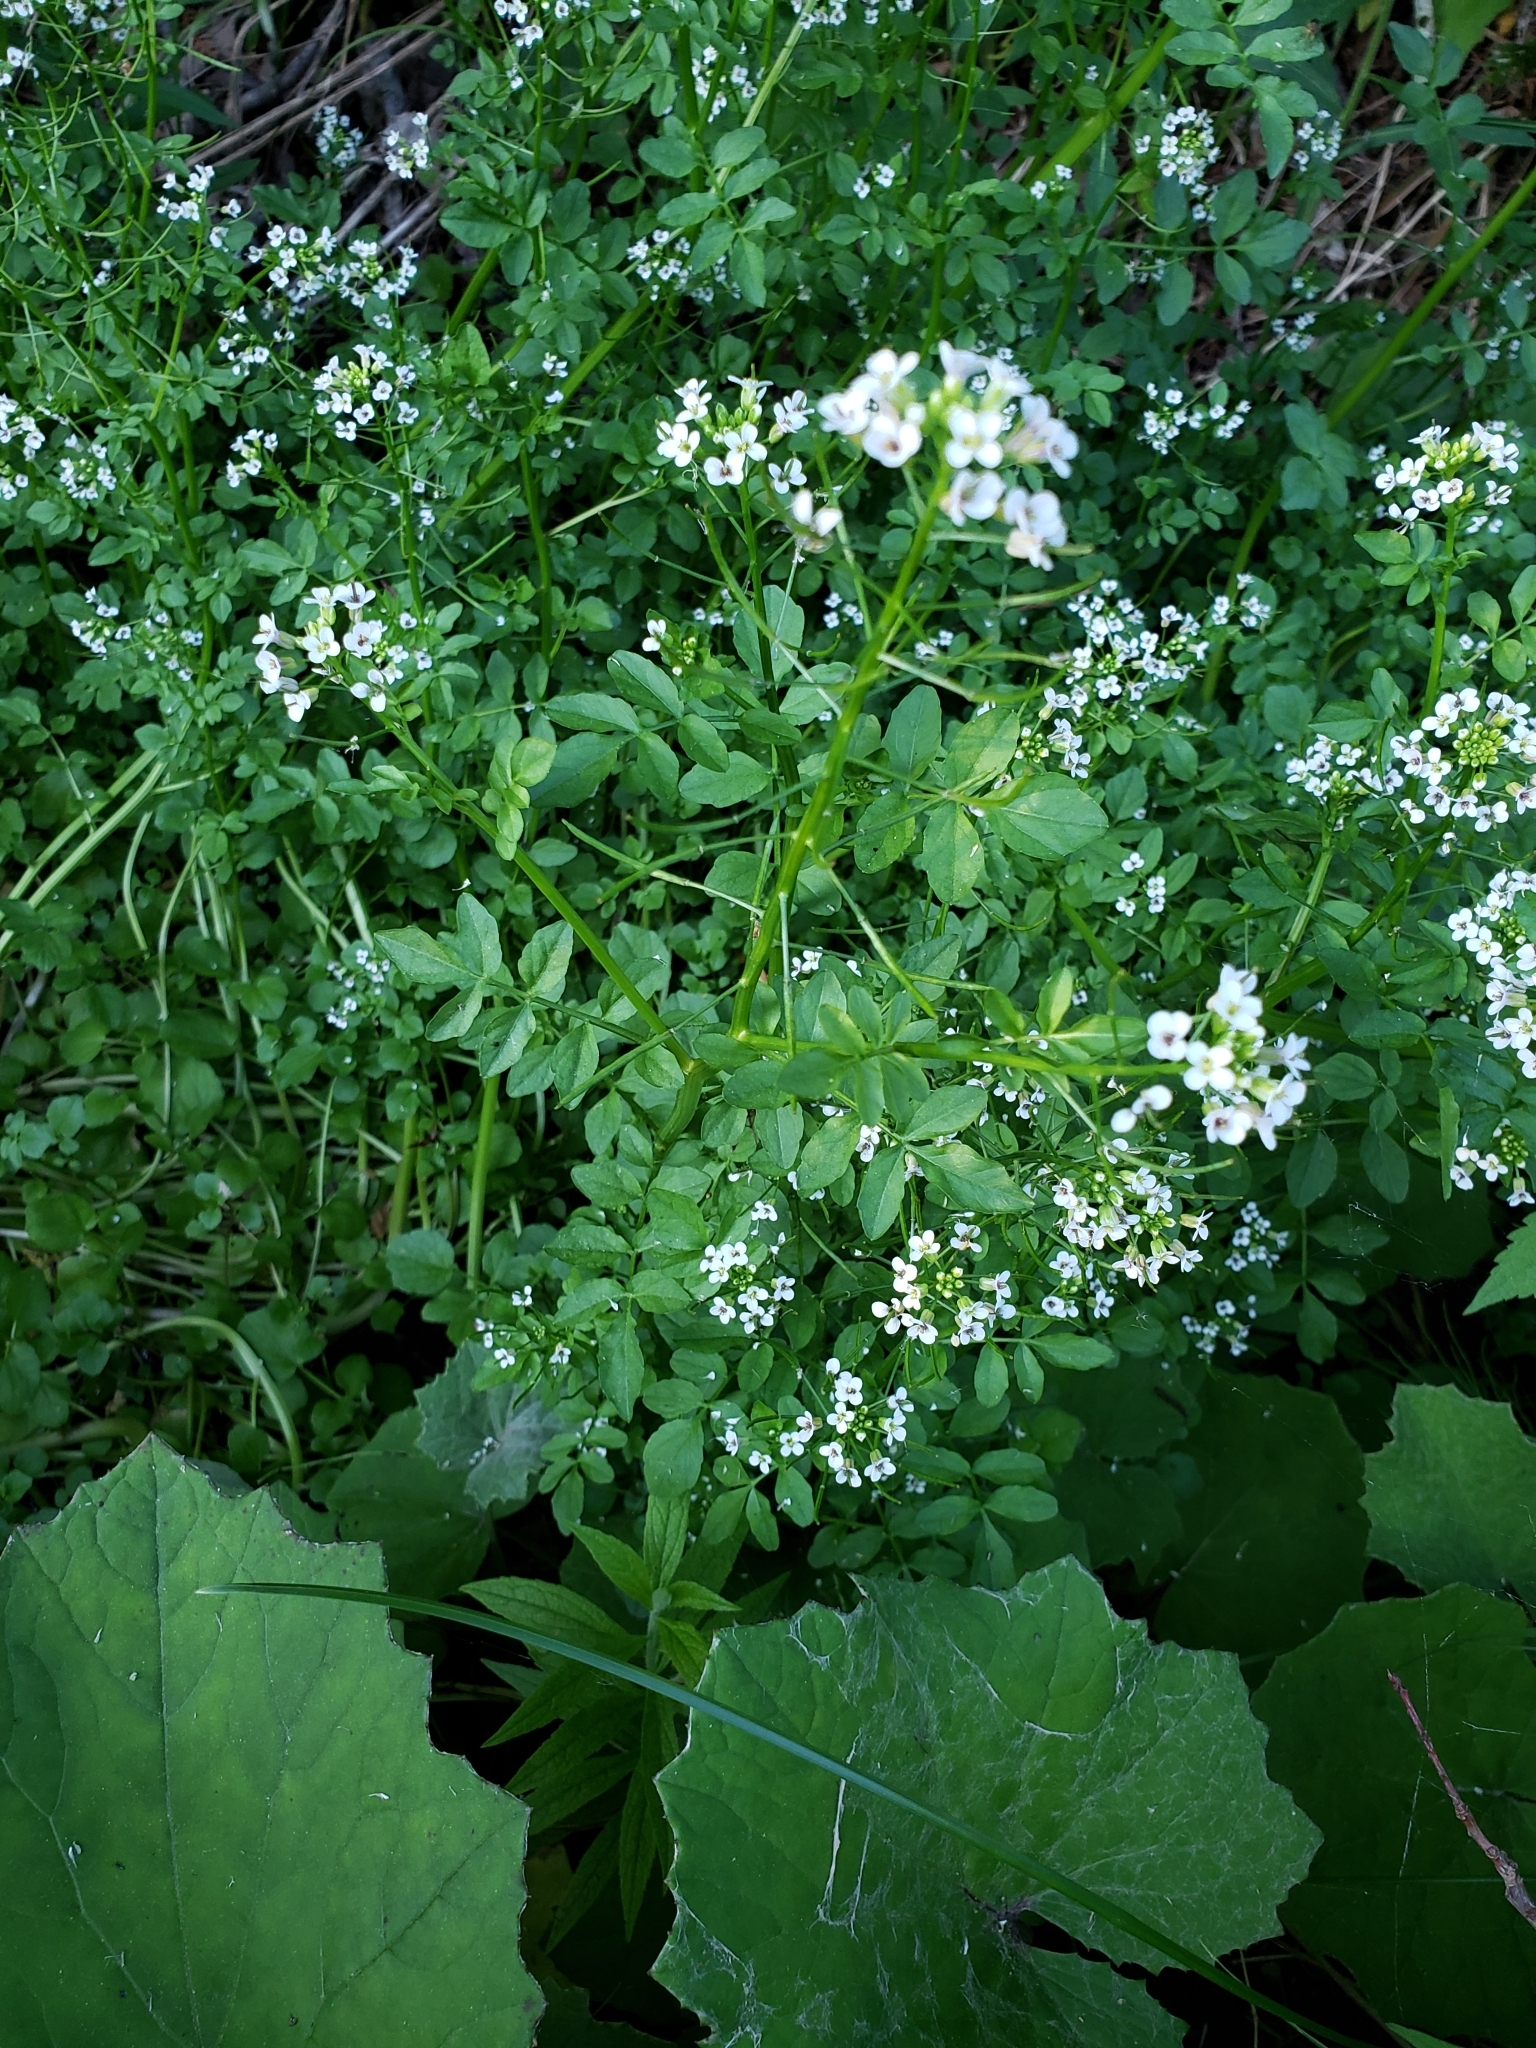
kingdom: Plantae
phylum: Tracheophyta
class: Magnoliopsida
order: Brassicales
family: Brassicaceae
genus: Nasturtium
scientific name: Nasturtium officinale
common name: Watercress
